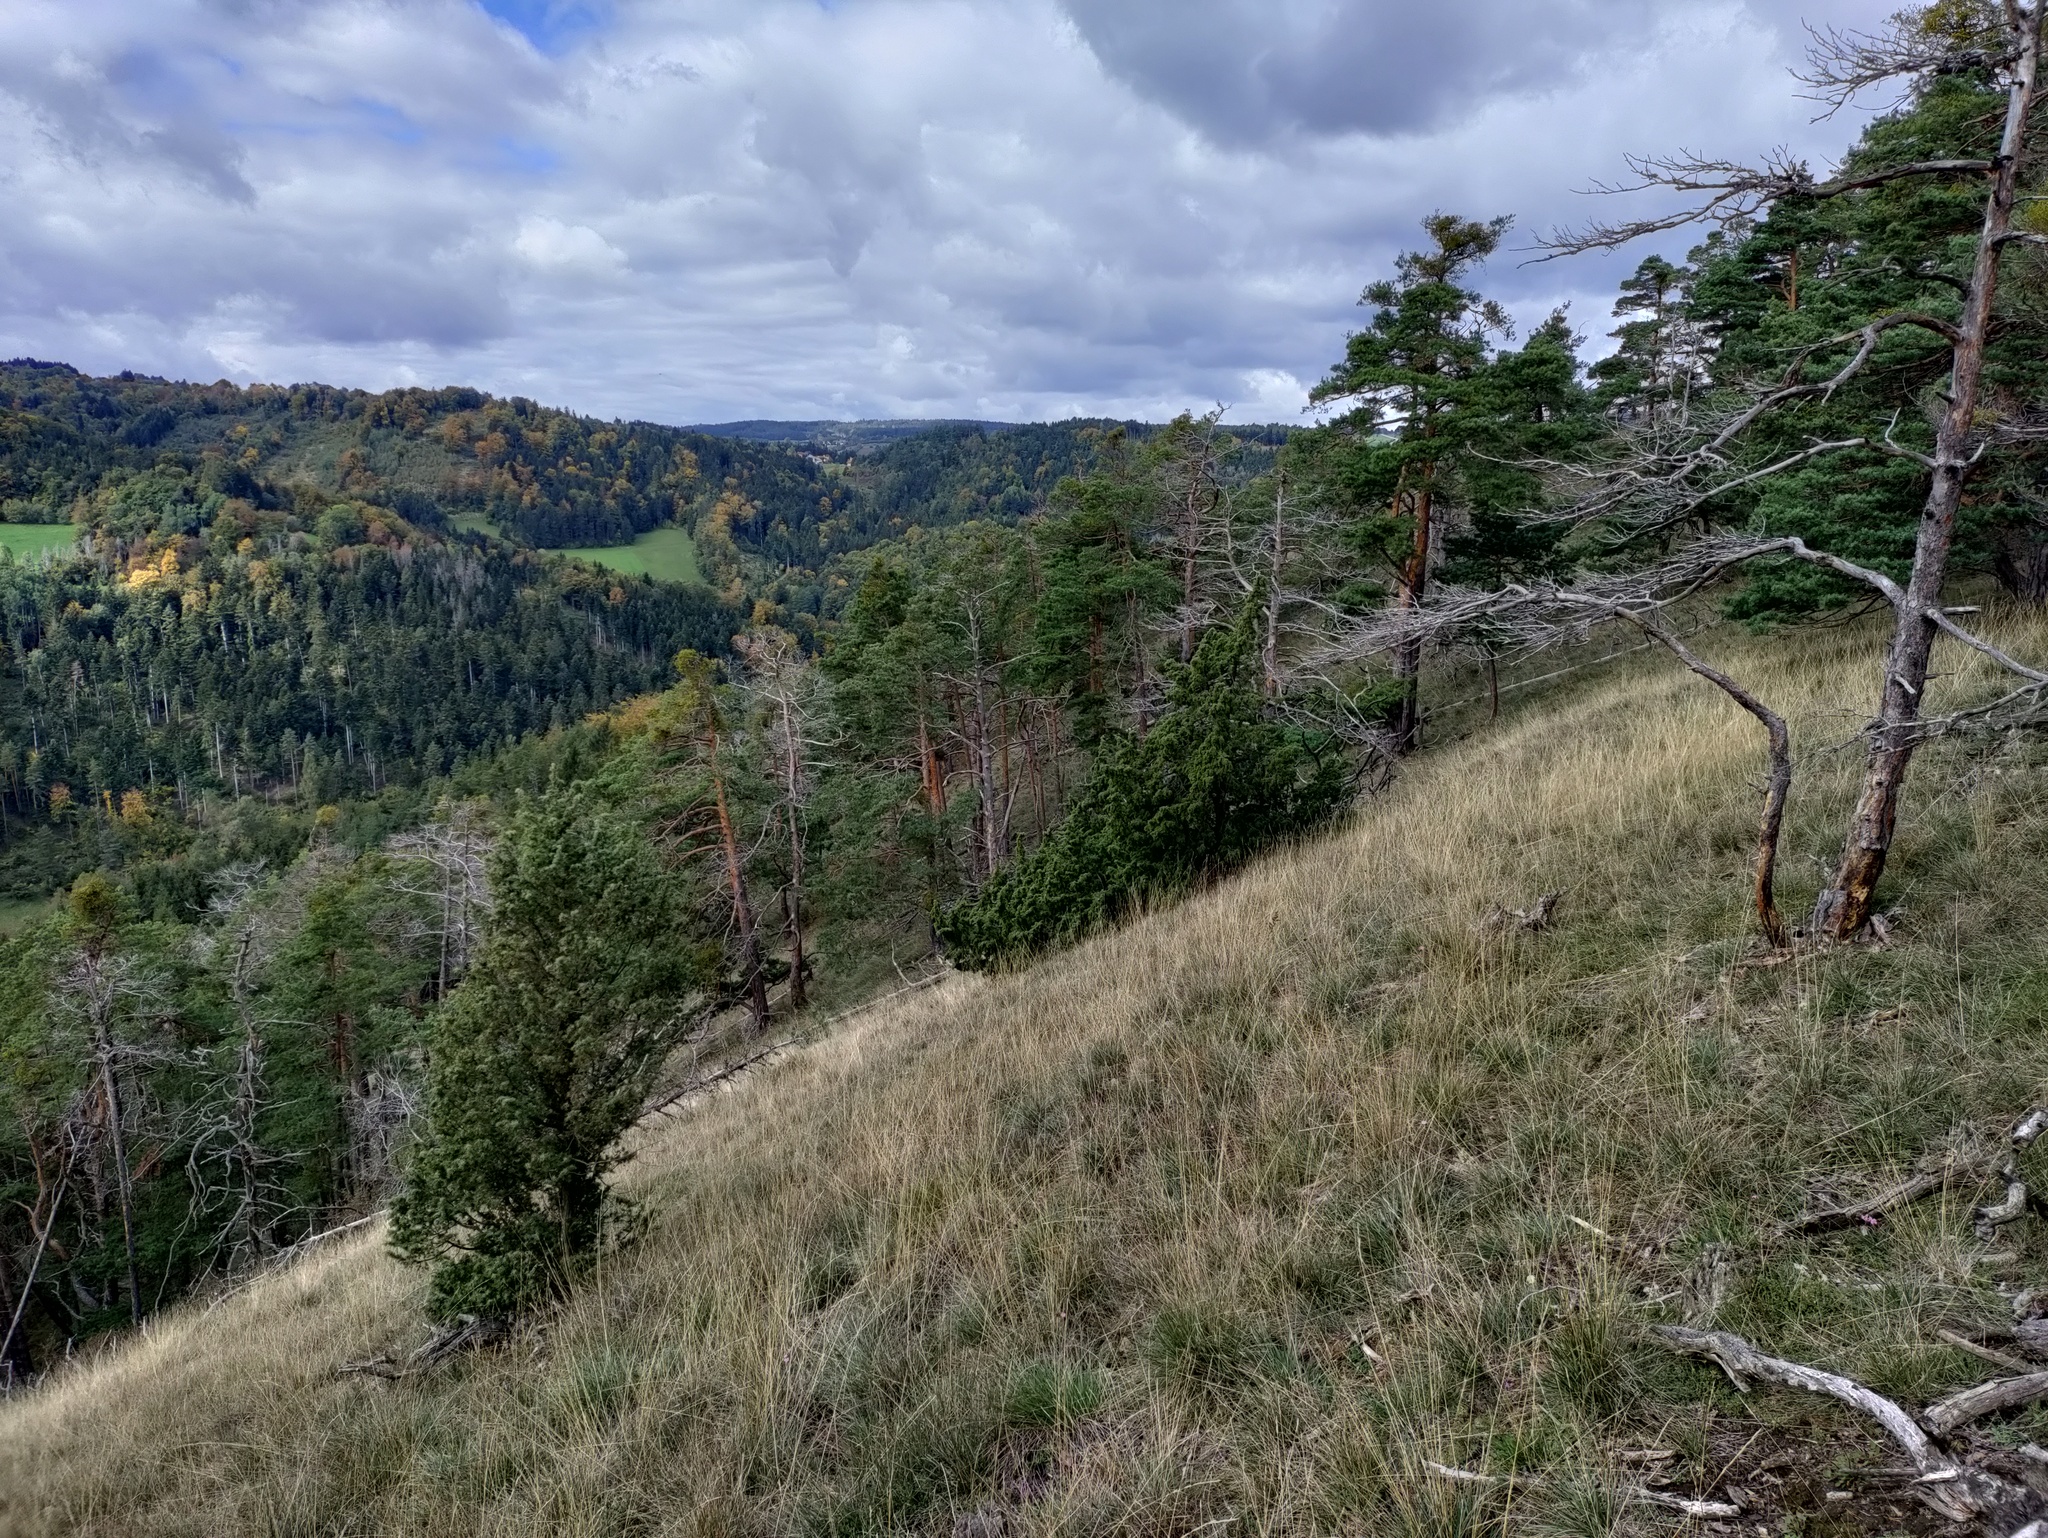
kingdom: Plantae
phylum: Tracheophyta
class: Pinopsida
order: Pinales
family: Cupressaceae
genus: Juniperus
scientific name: Juniperus communis
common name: Common juniper
